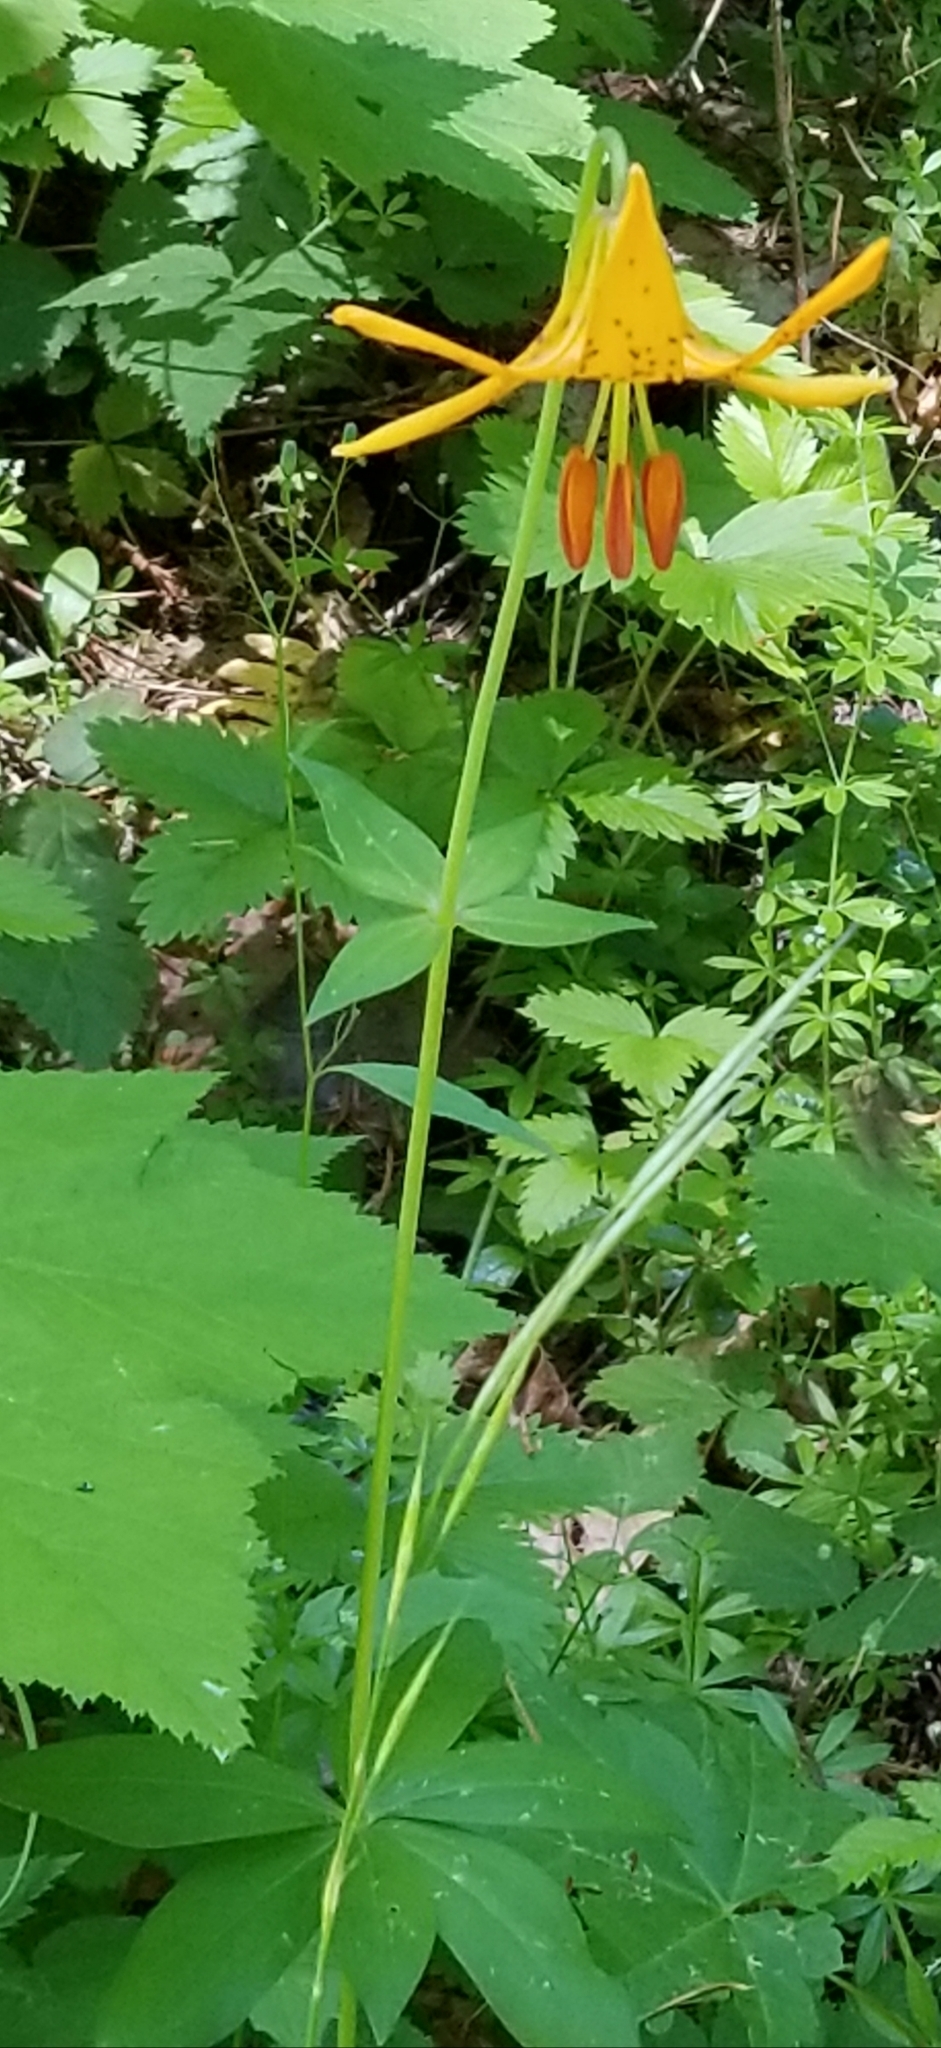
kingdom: Plantae
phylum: Tracheophyta
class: Liliopsida
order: Liliales
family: Liliaceae
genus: Lilium
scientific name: Lilium columbianum
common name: Columbia lily
